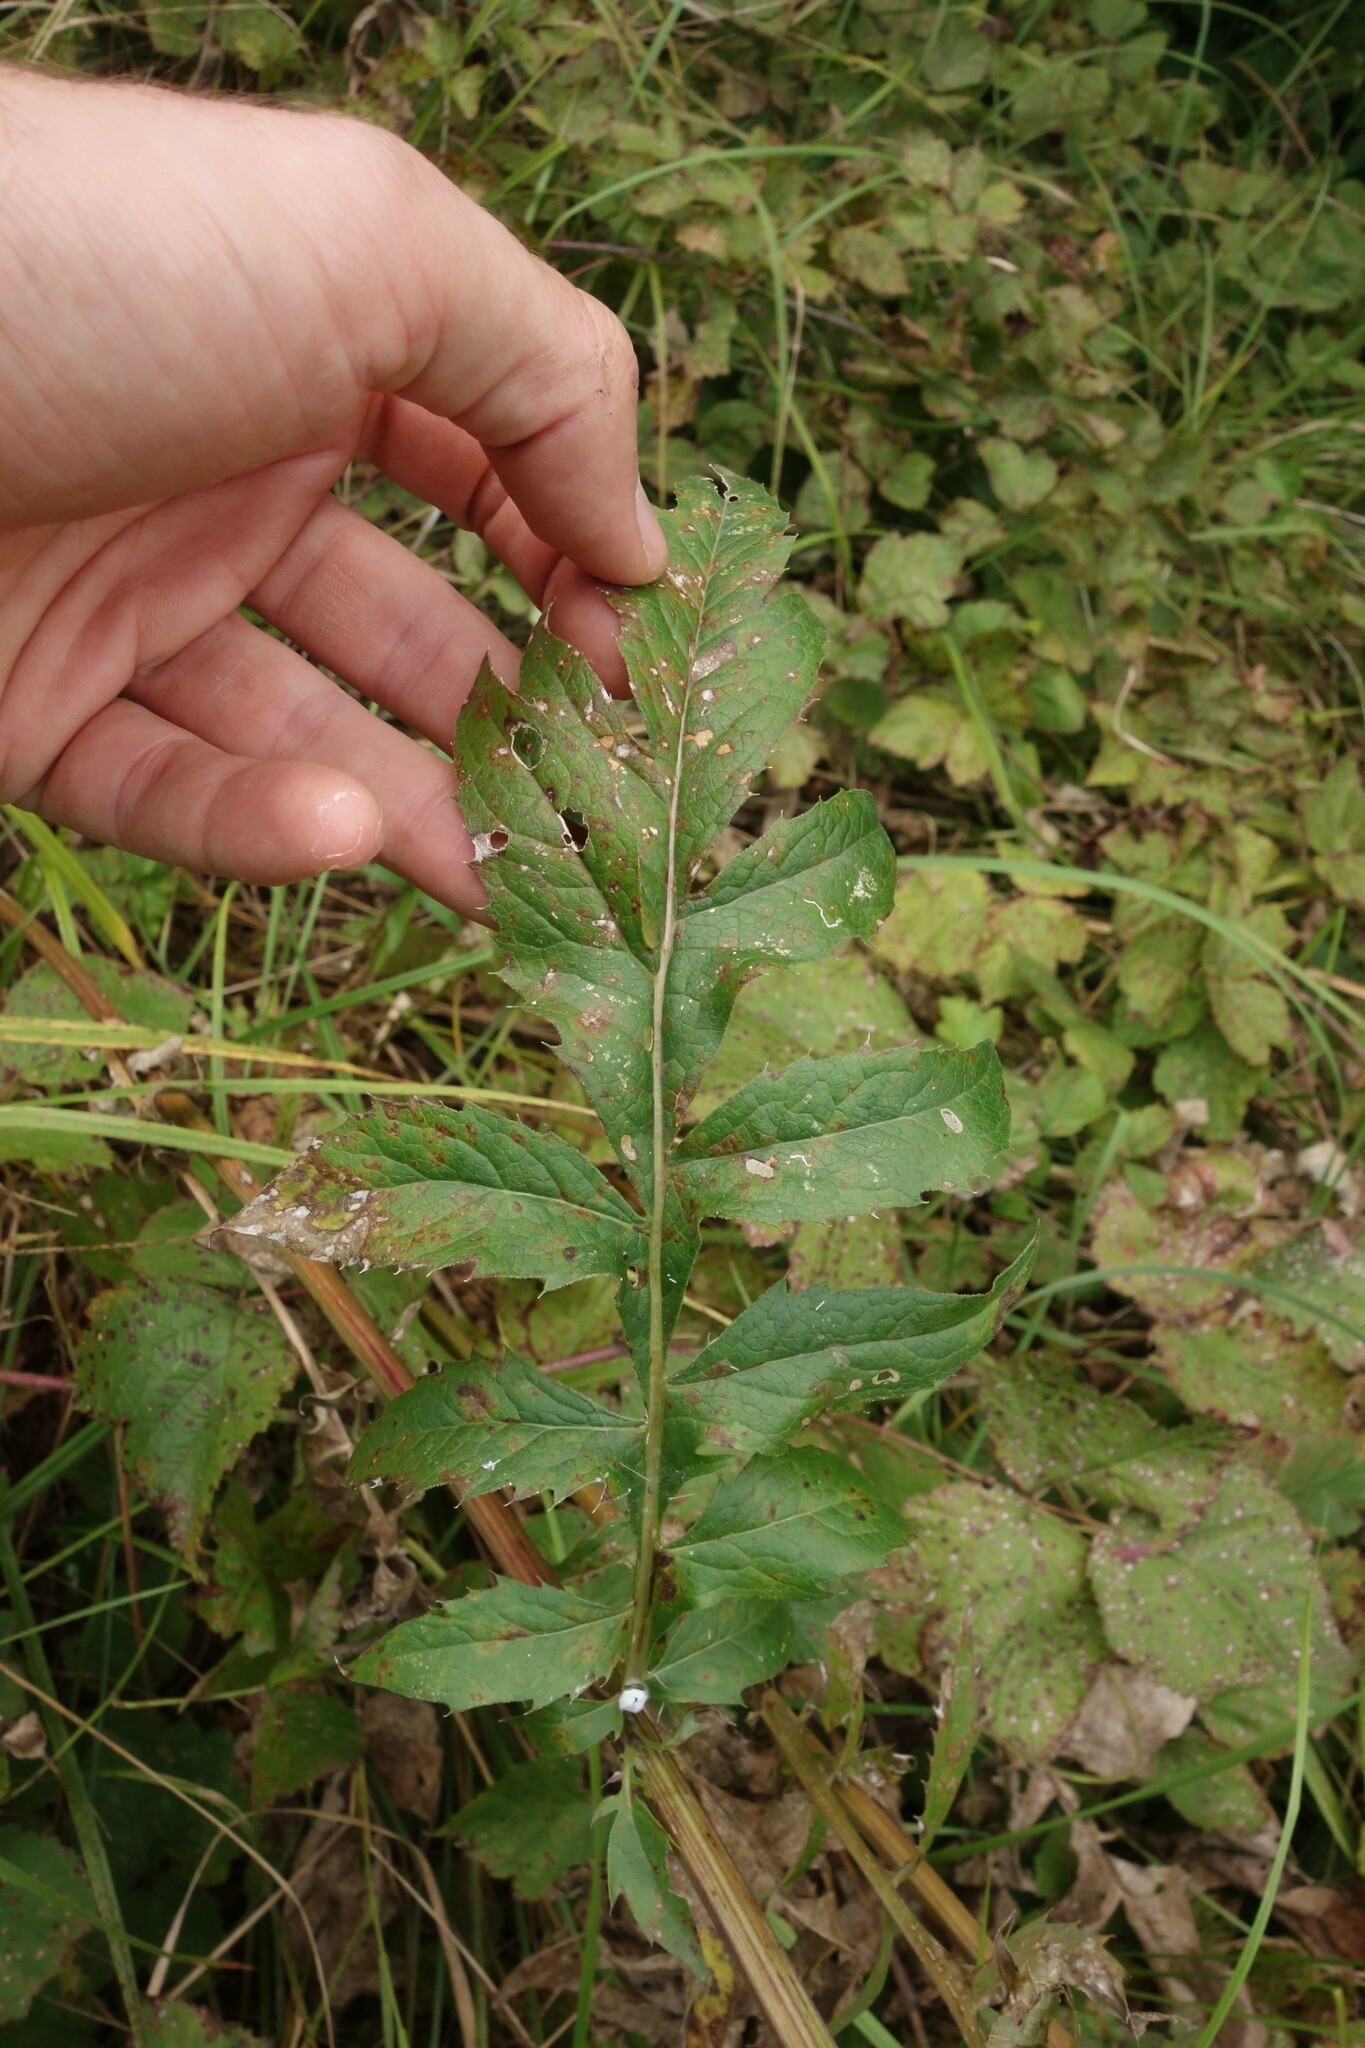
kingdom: Plantae
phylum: Tracheophyta
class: Magnoliopsida
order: Asterales
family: Asteraceae
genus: Serratula
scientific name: Serratula coronata
